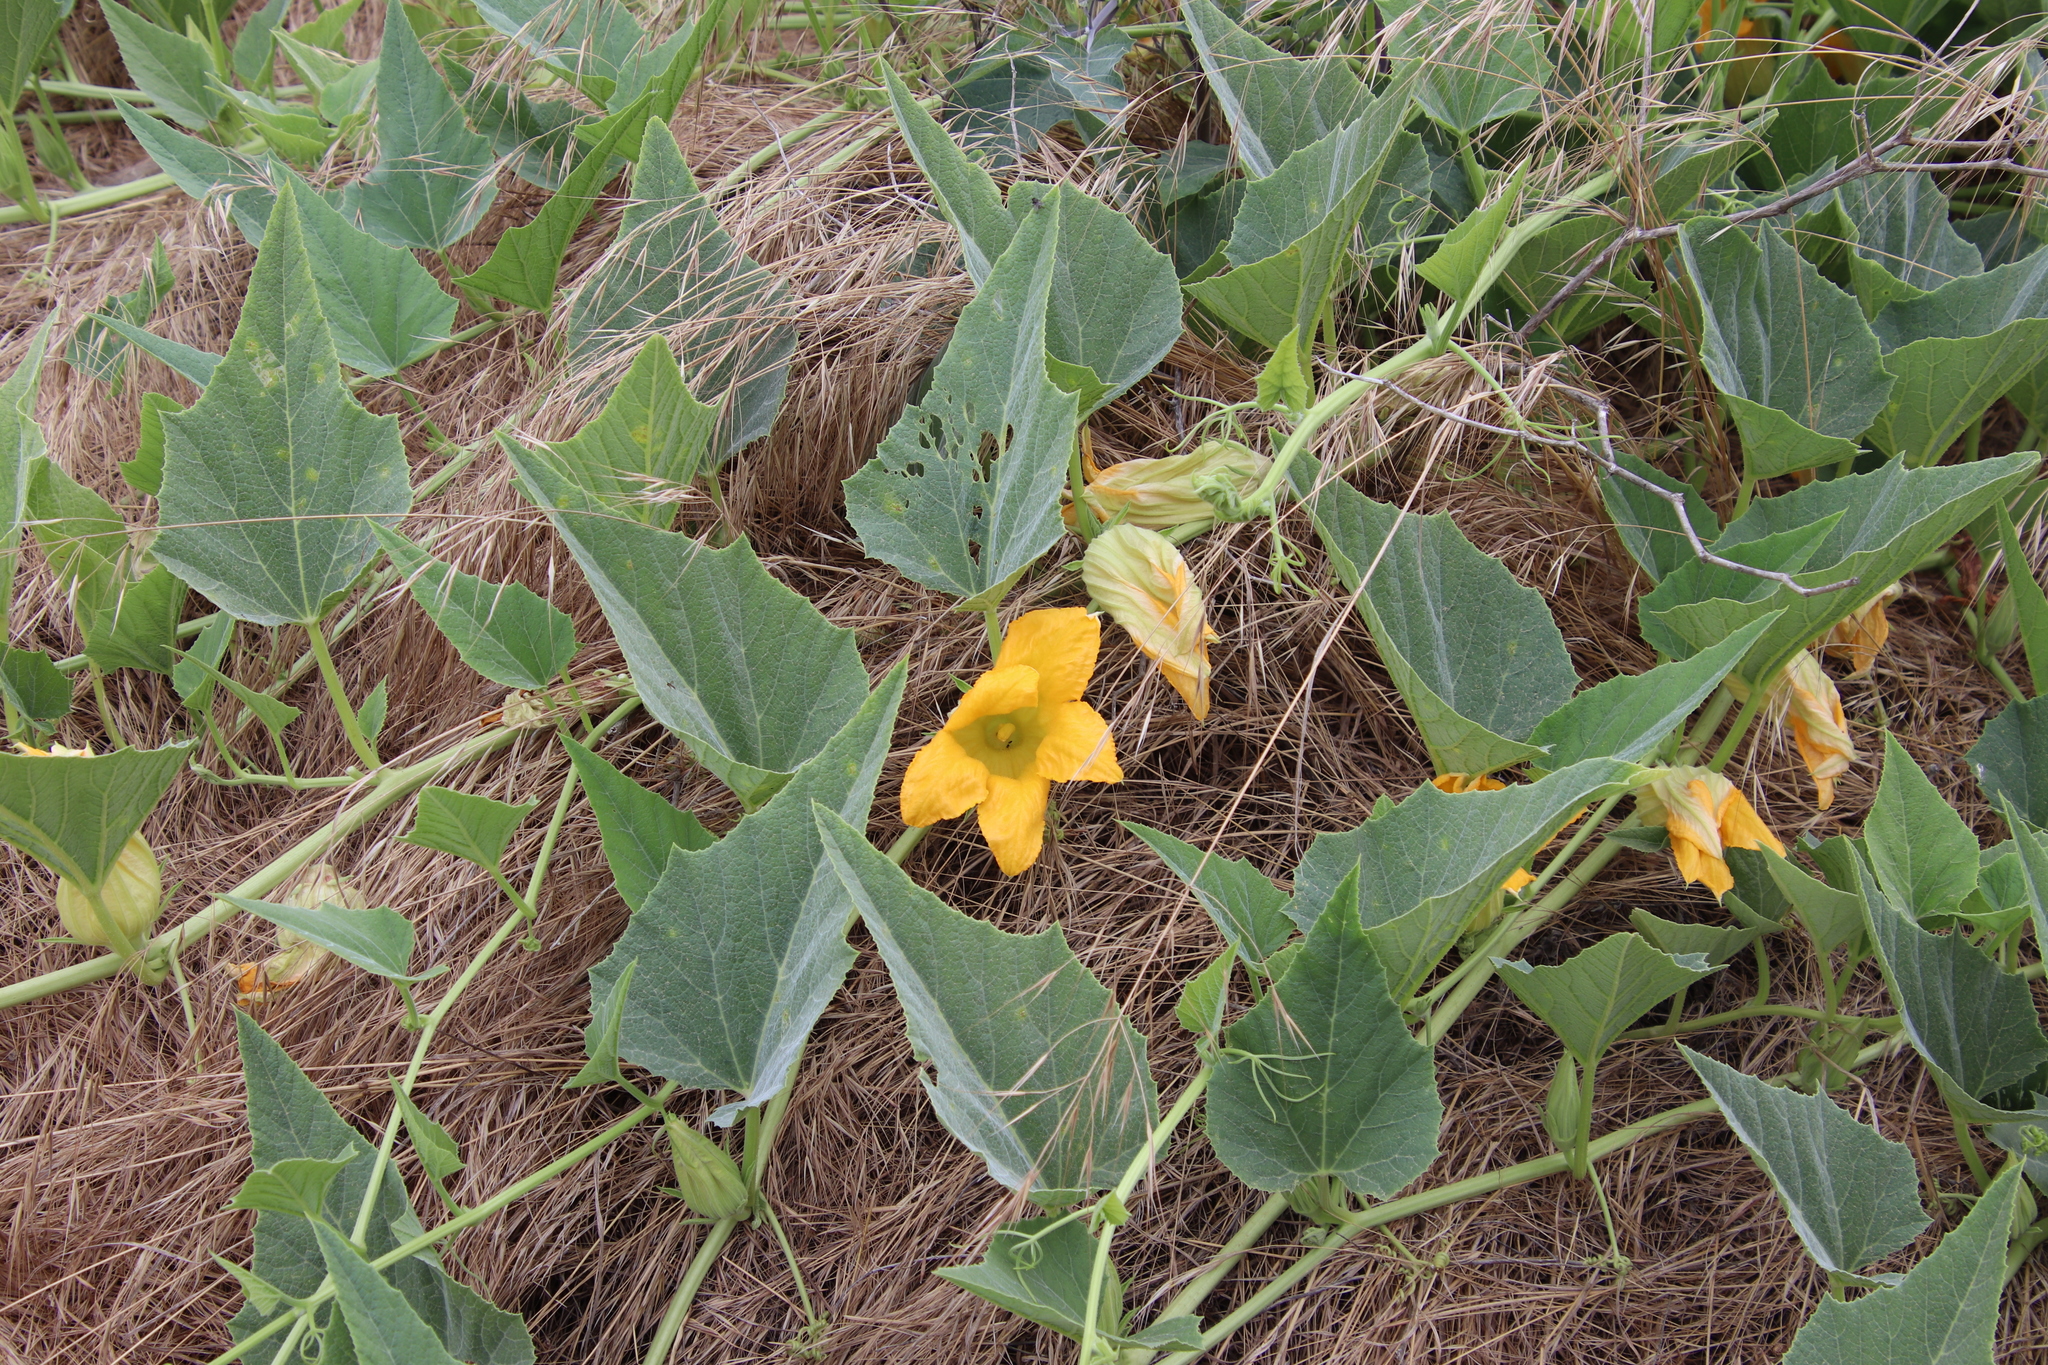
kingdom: Plantae
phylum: Tracheophyta
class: Magnoliopsida
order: Cucurbitales
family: Cucurbitaceae
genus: Cucurbita
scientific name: Cucurbita foetidissima
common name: Buffalo gourd
